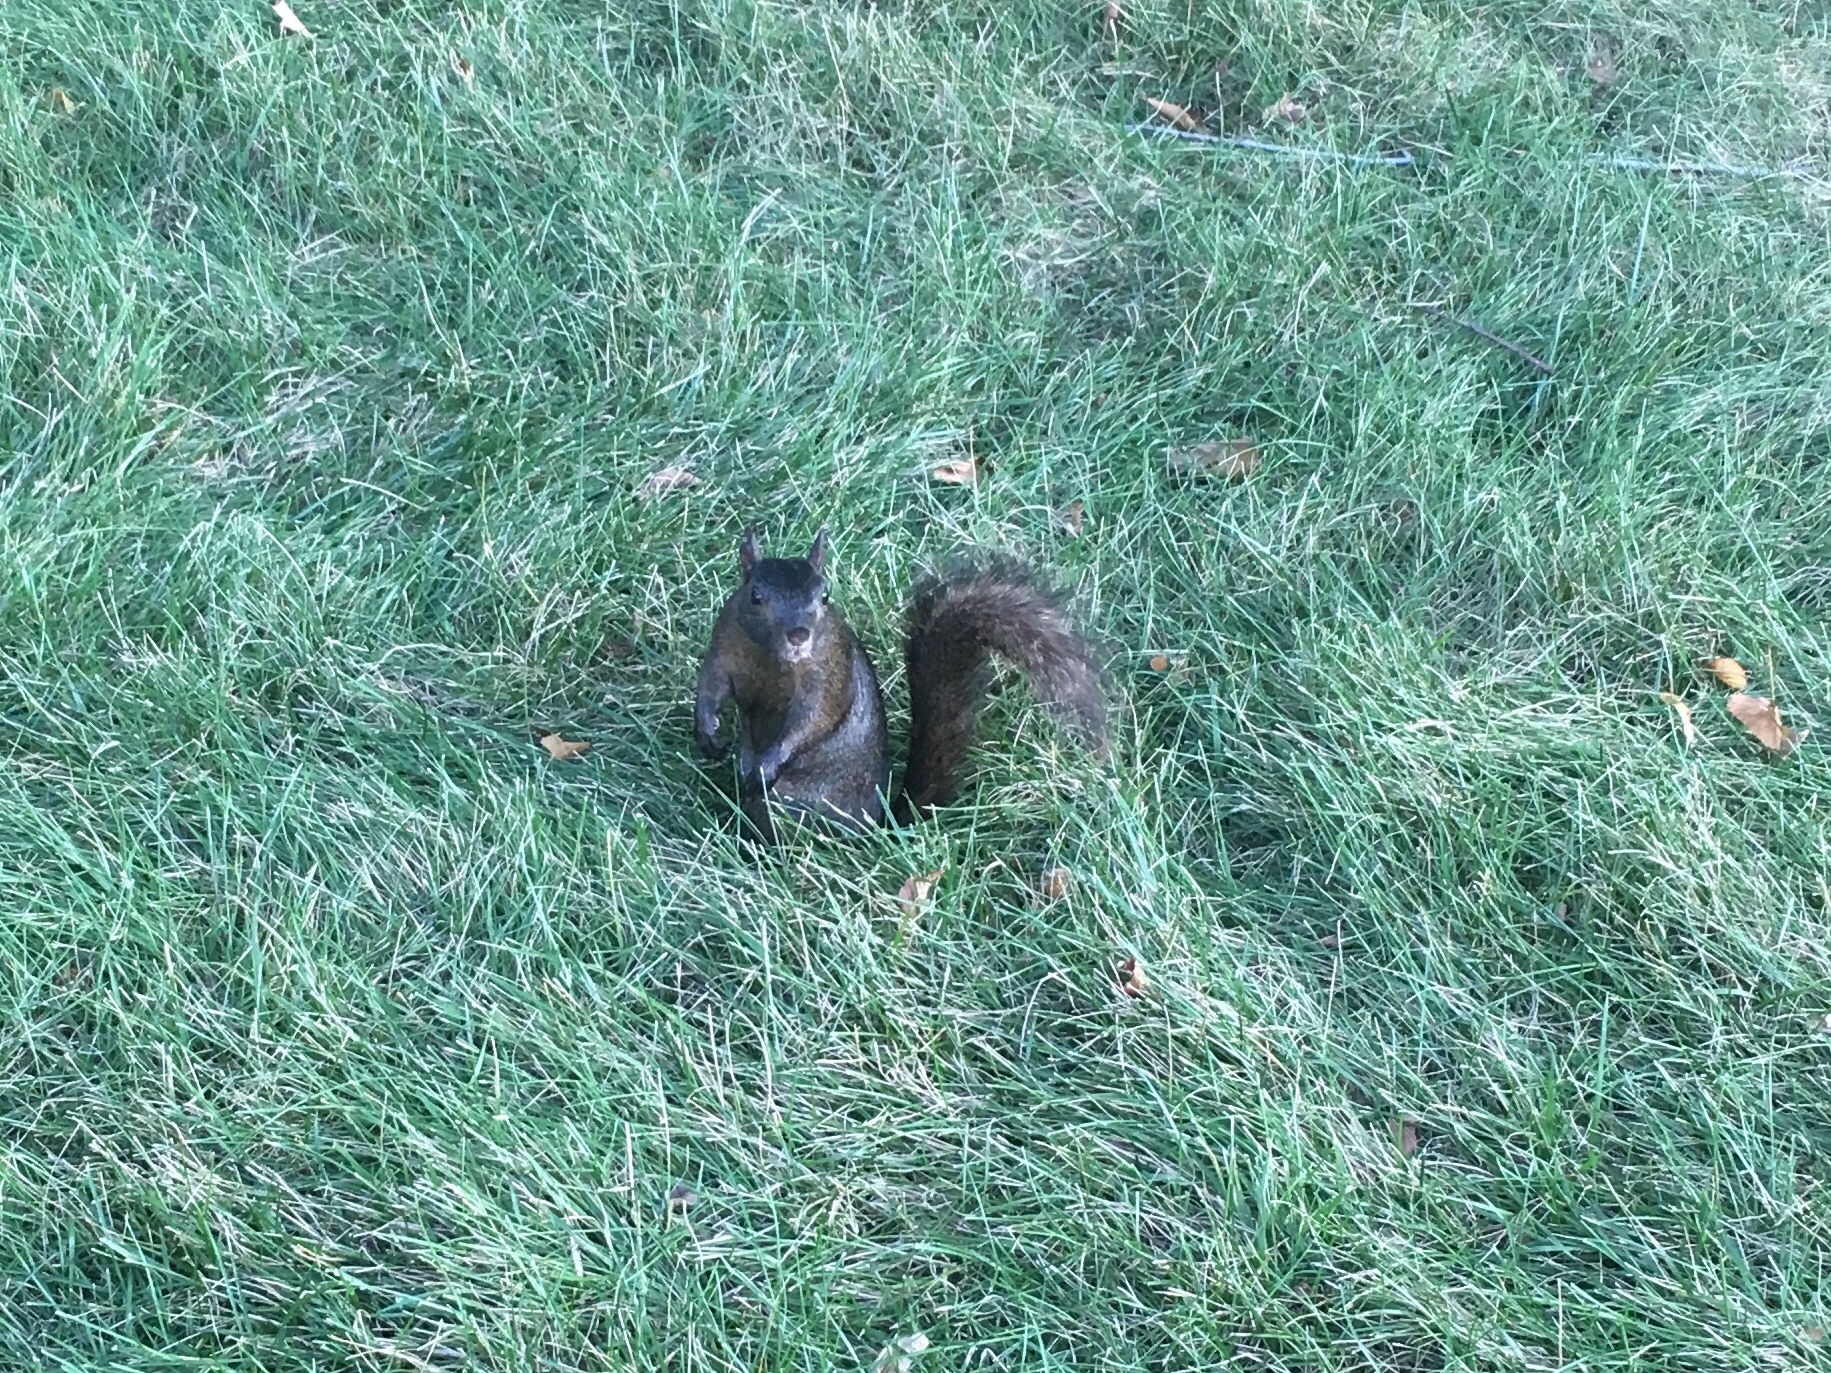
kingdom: Animalia
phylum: Chordata
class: Mammalia
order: Rodentia
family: Sciuridae
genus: Sciurus
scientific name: Sciurus carolinensis
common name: Eastern gray squirrel
